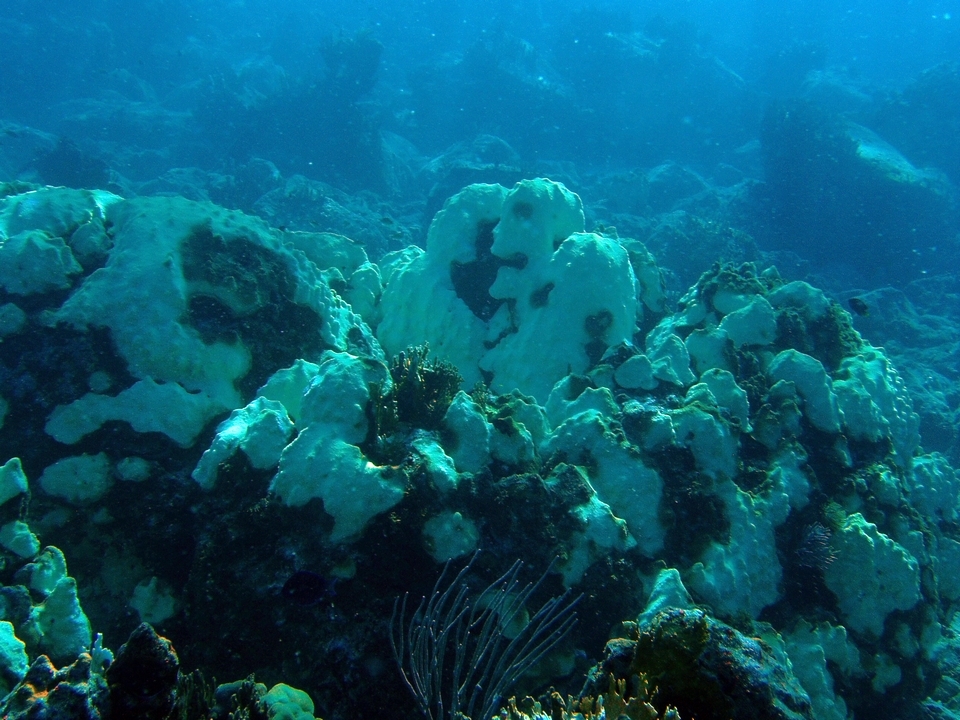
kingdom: Animalia
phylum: Cnidaria
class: Anthozoa
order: Scleractinia
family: Merulinidae
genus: Orbicella
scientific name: Orbicella faveolata
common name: Mountainous star coral
